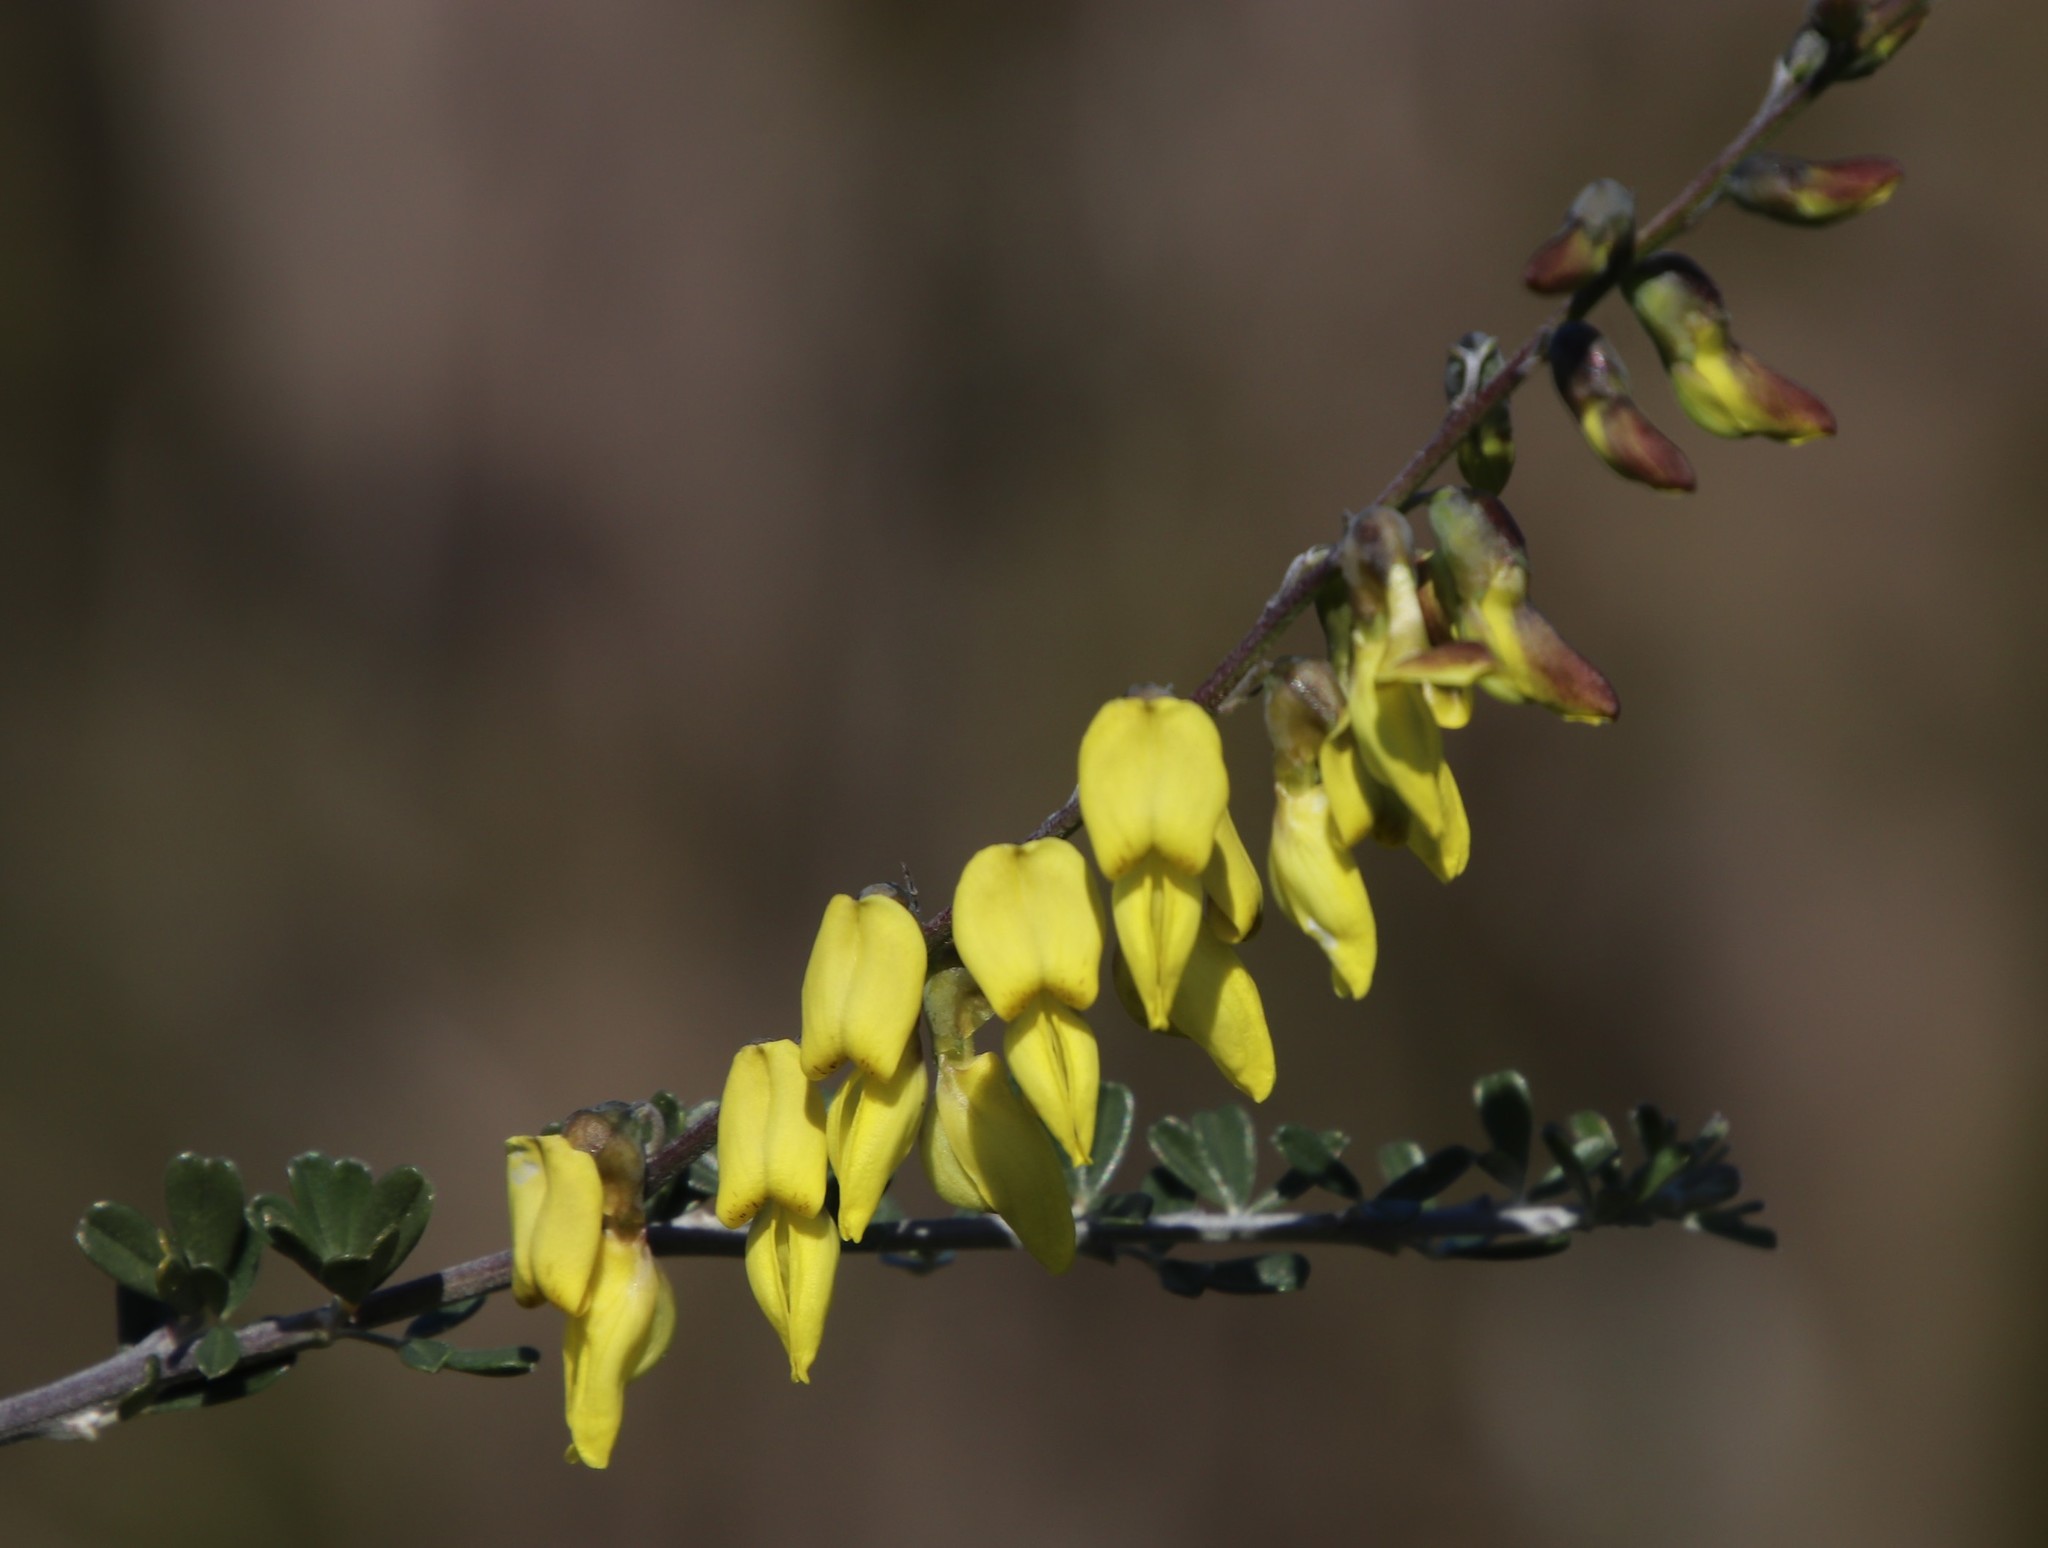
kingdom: Plantae
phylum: Tracheophyta
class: Magnoliopsida
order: Fabales
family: Fabaceae
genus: Wiborgia
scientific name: Wiborgia obcordata
